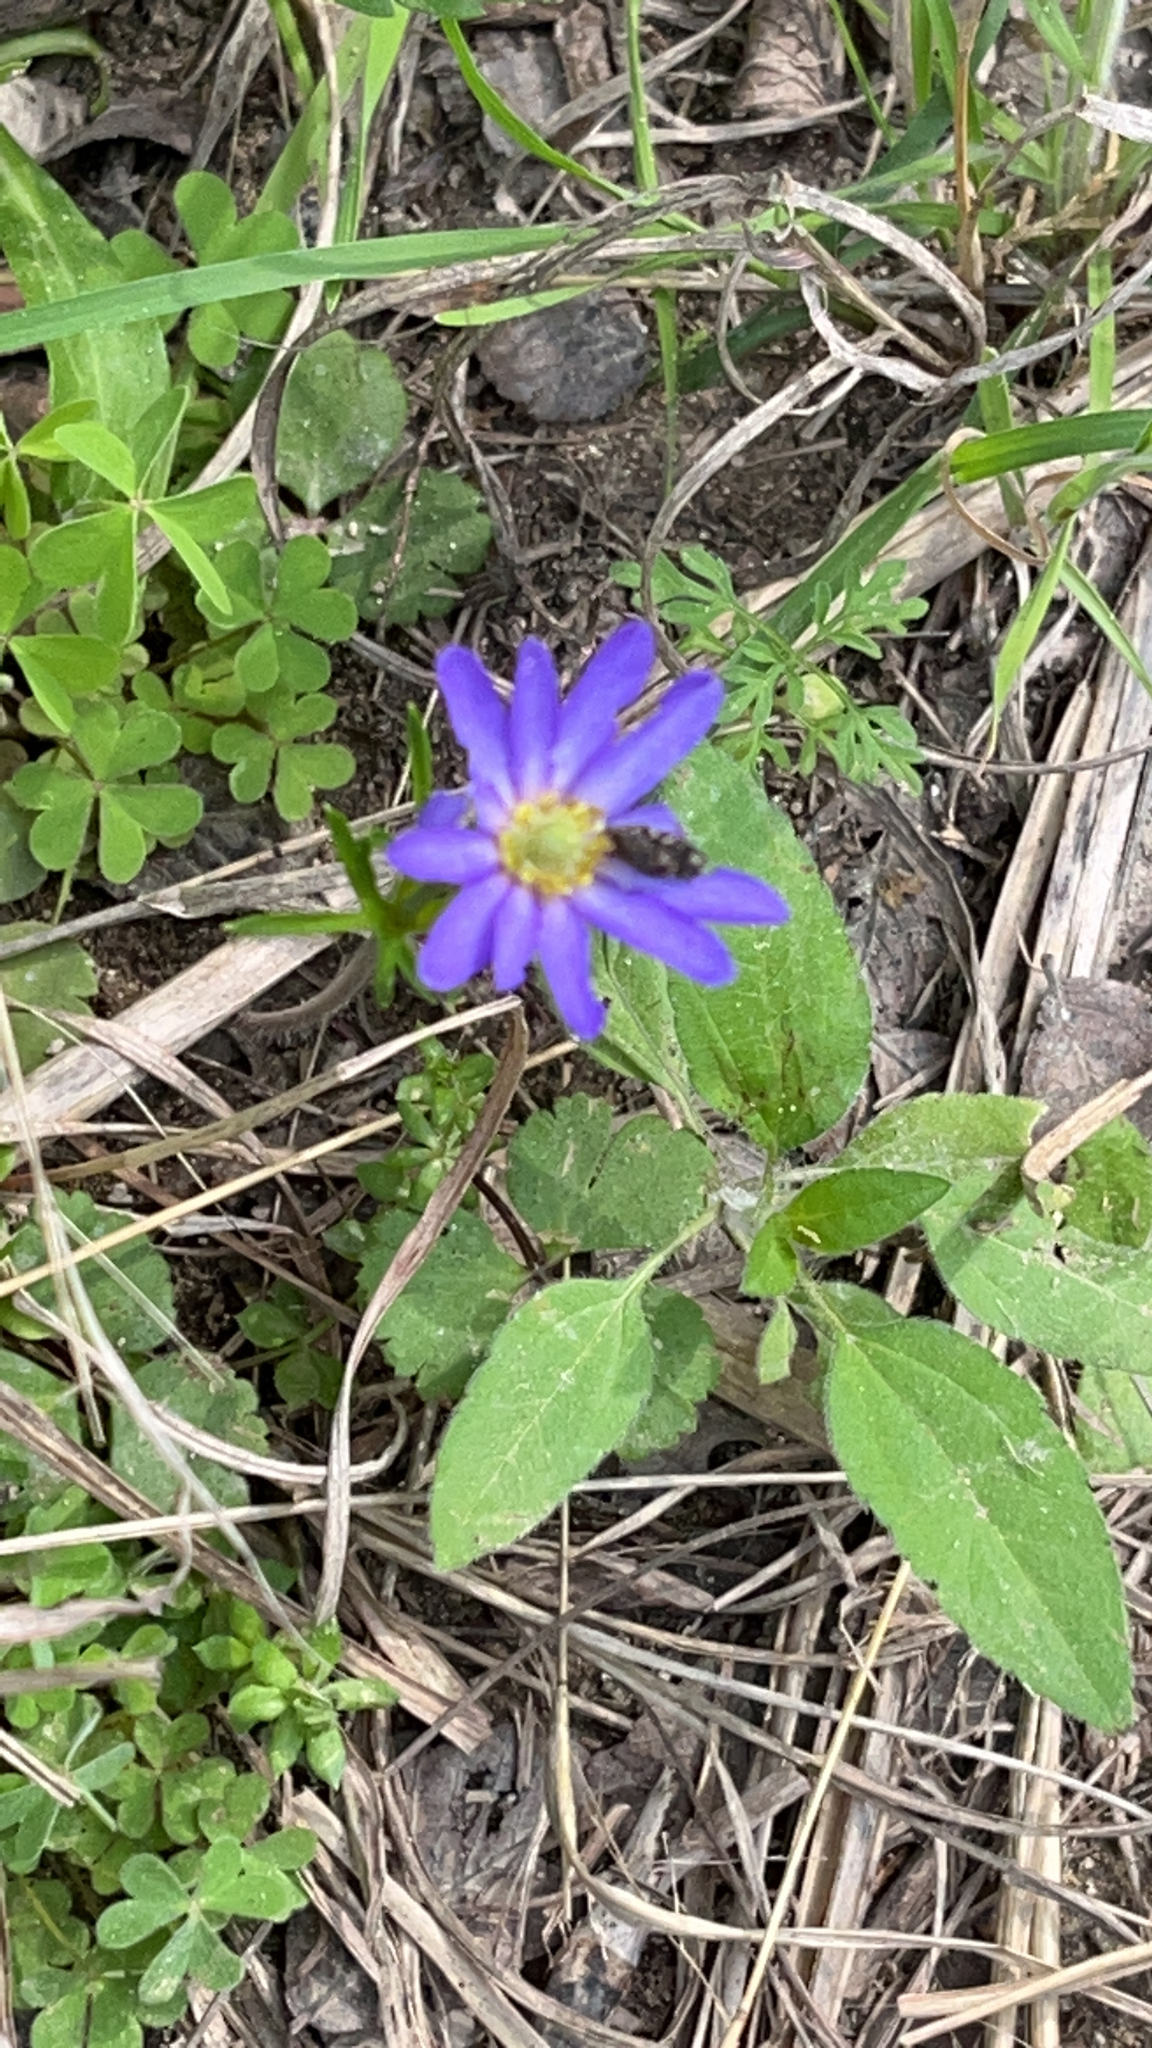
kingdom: Plantae
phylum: Tracheophyta
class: Magnoliopsida
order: Ranunculales
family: Ranunculaceae
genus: Anemone
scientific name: Anemone berlandieri
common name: Ten-petal anemone
